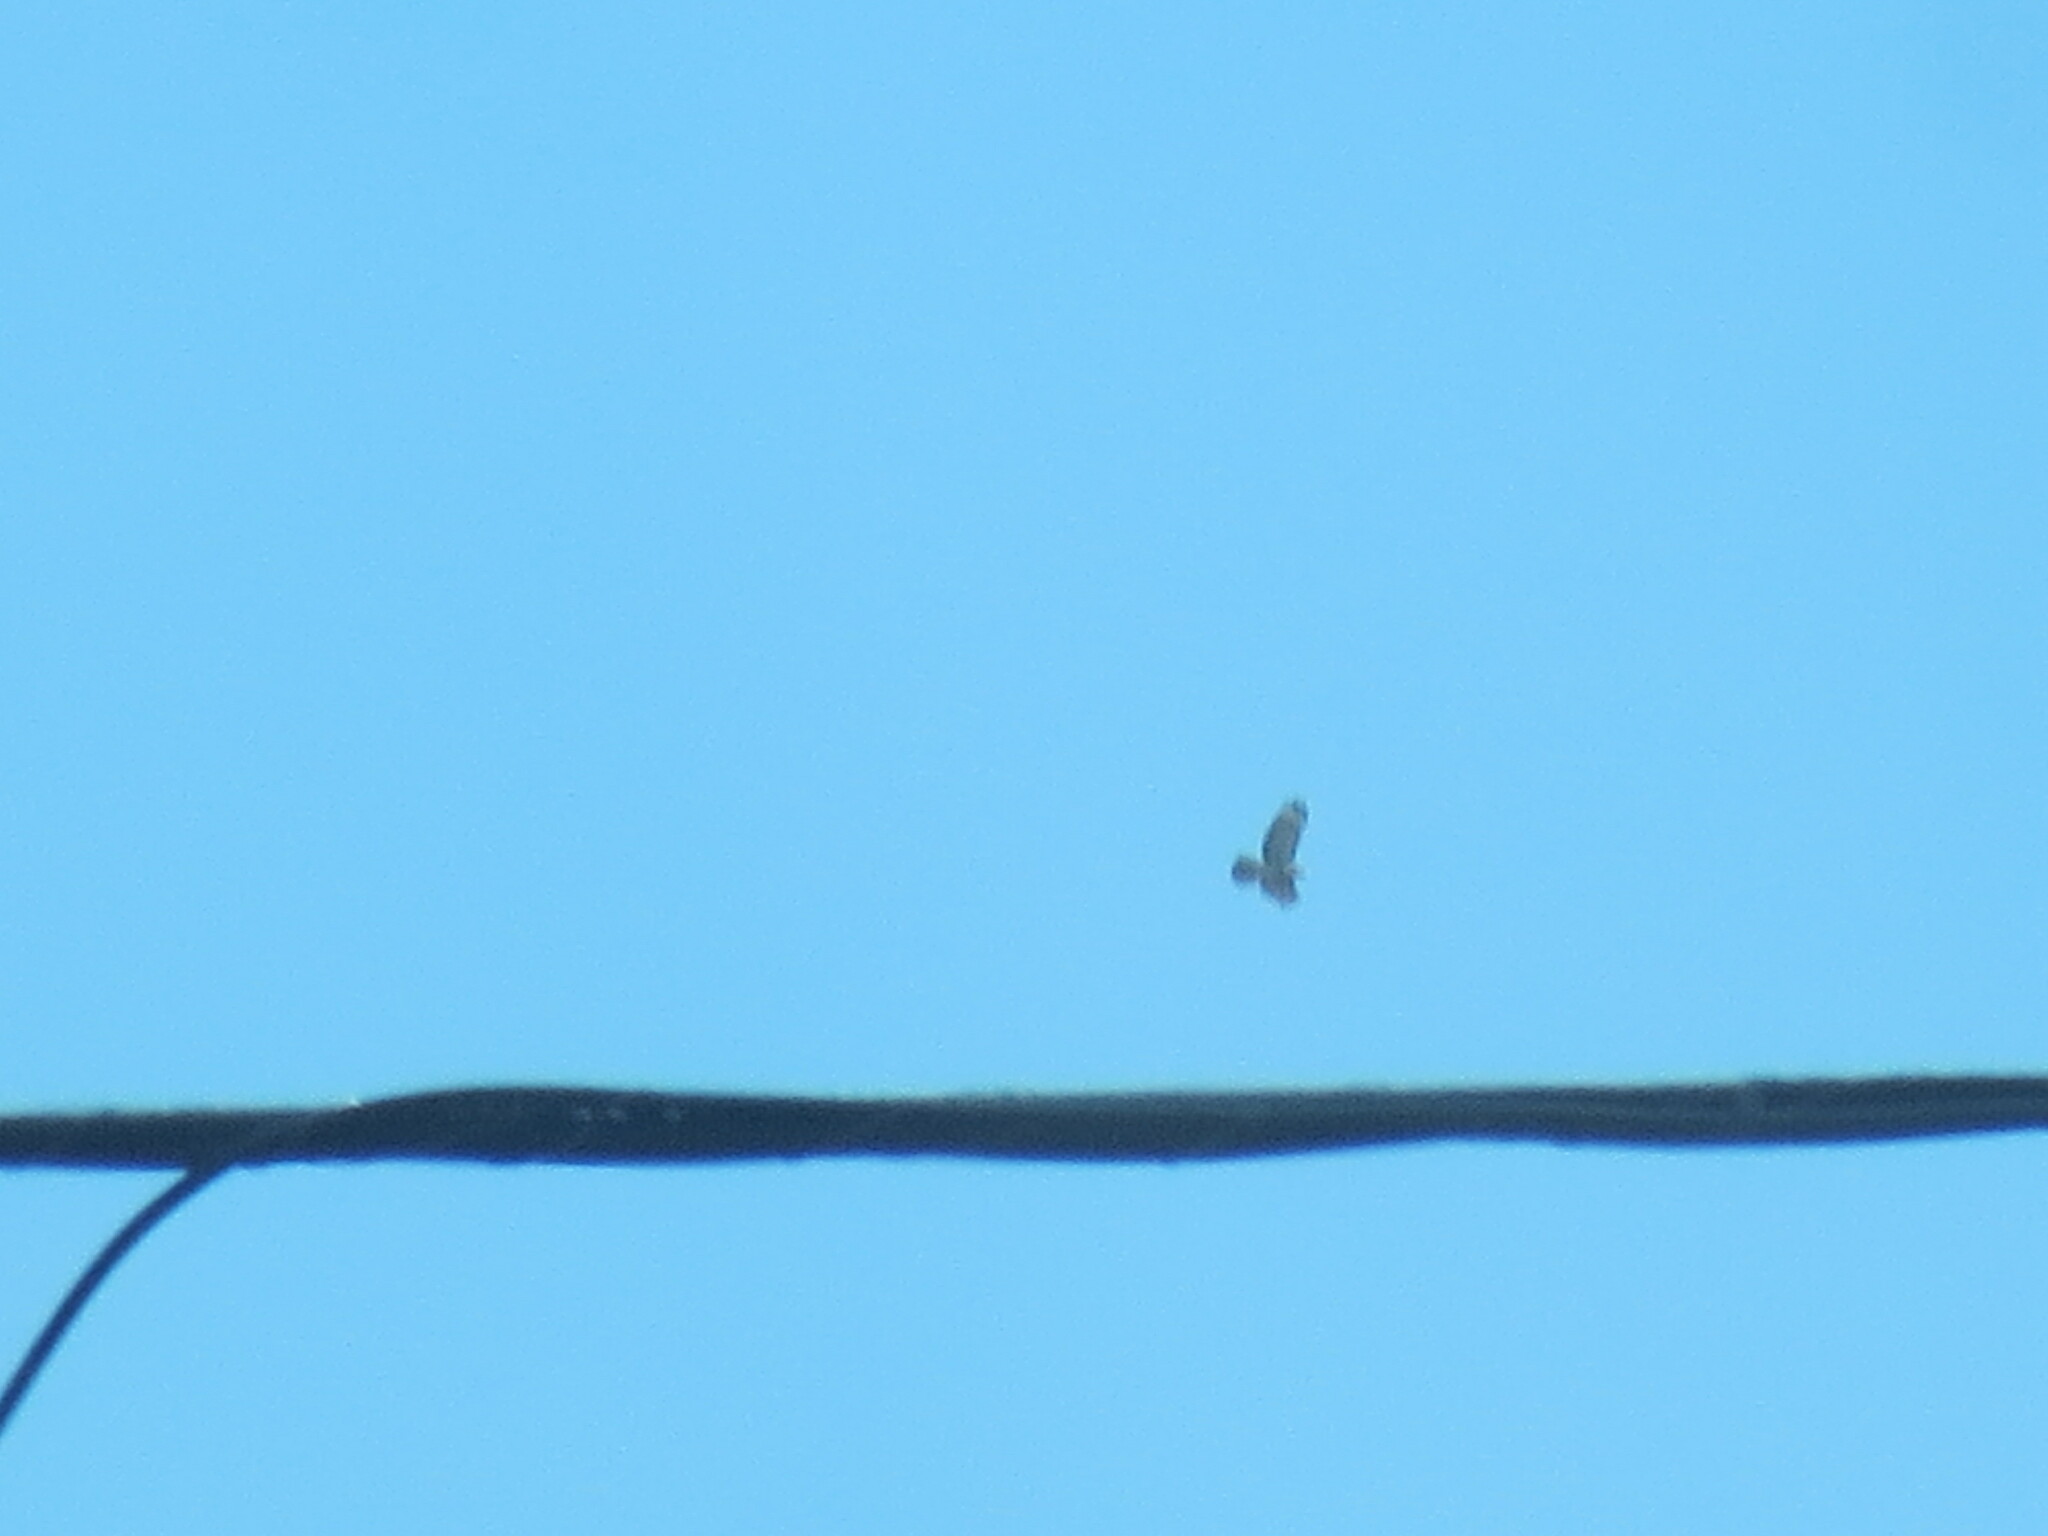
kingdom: Animalia
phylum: Chordata
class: Aves
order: Accipitriformes
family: Accipitridae
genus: Buteo
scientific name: Buteo jamaicensis
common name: Red-tailed hawk
